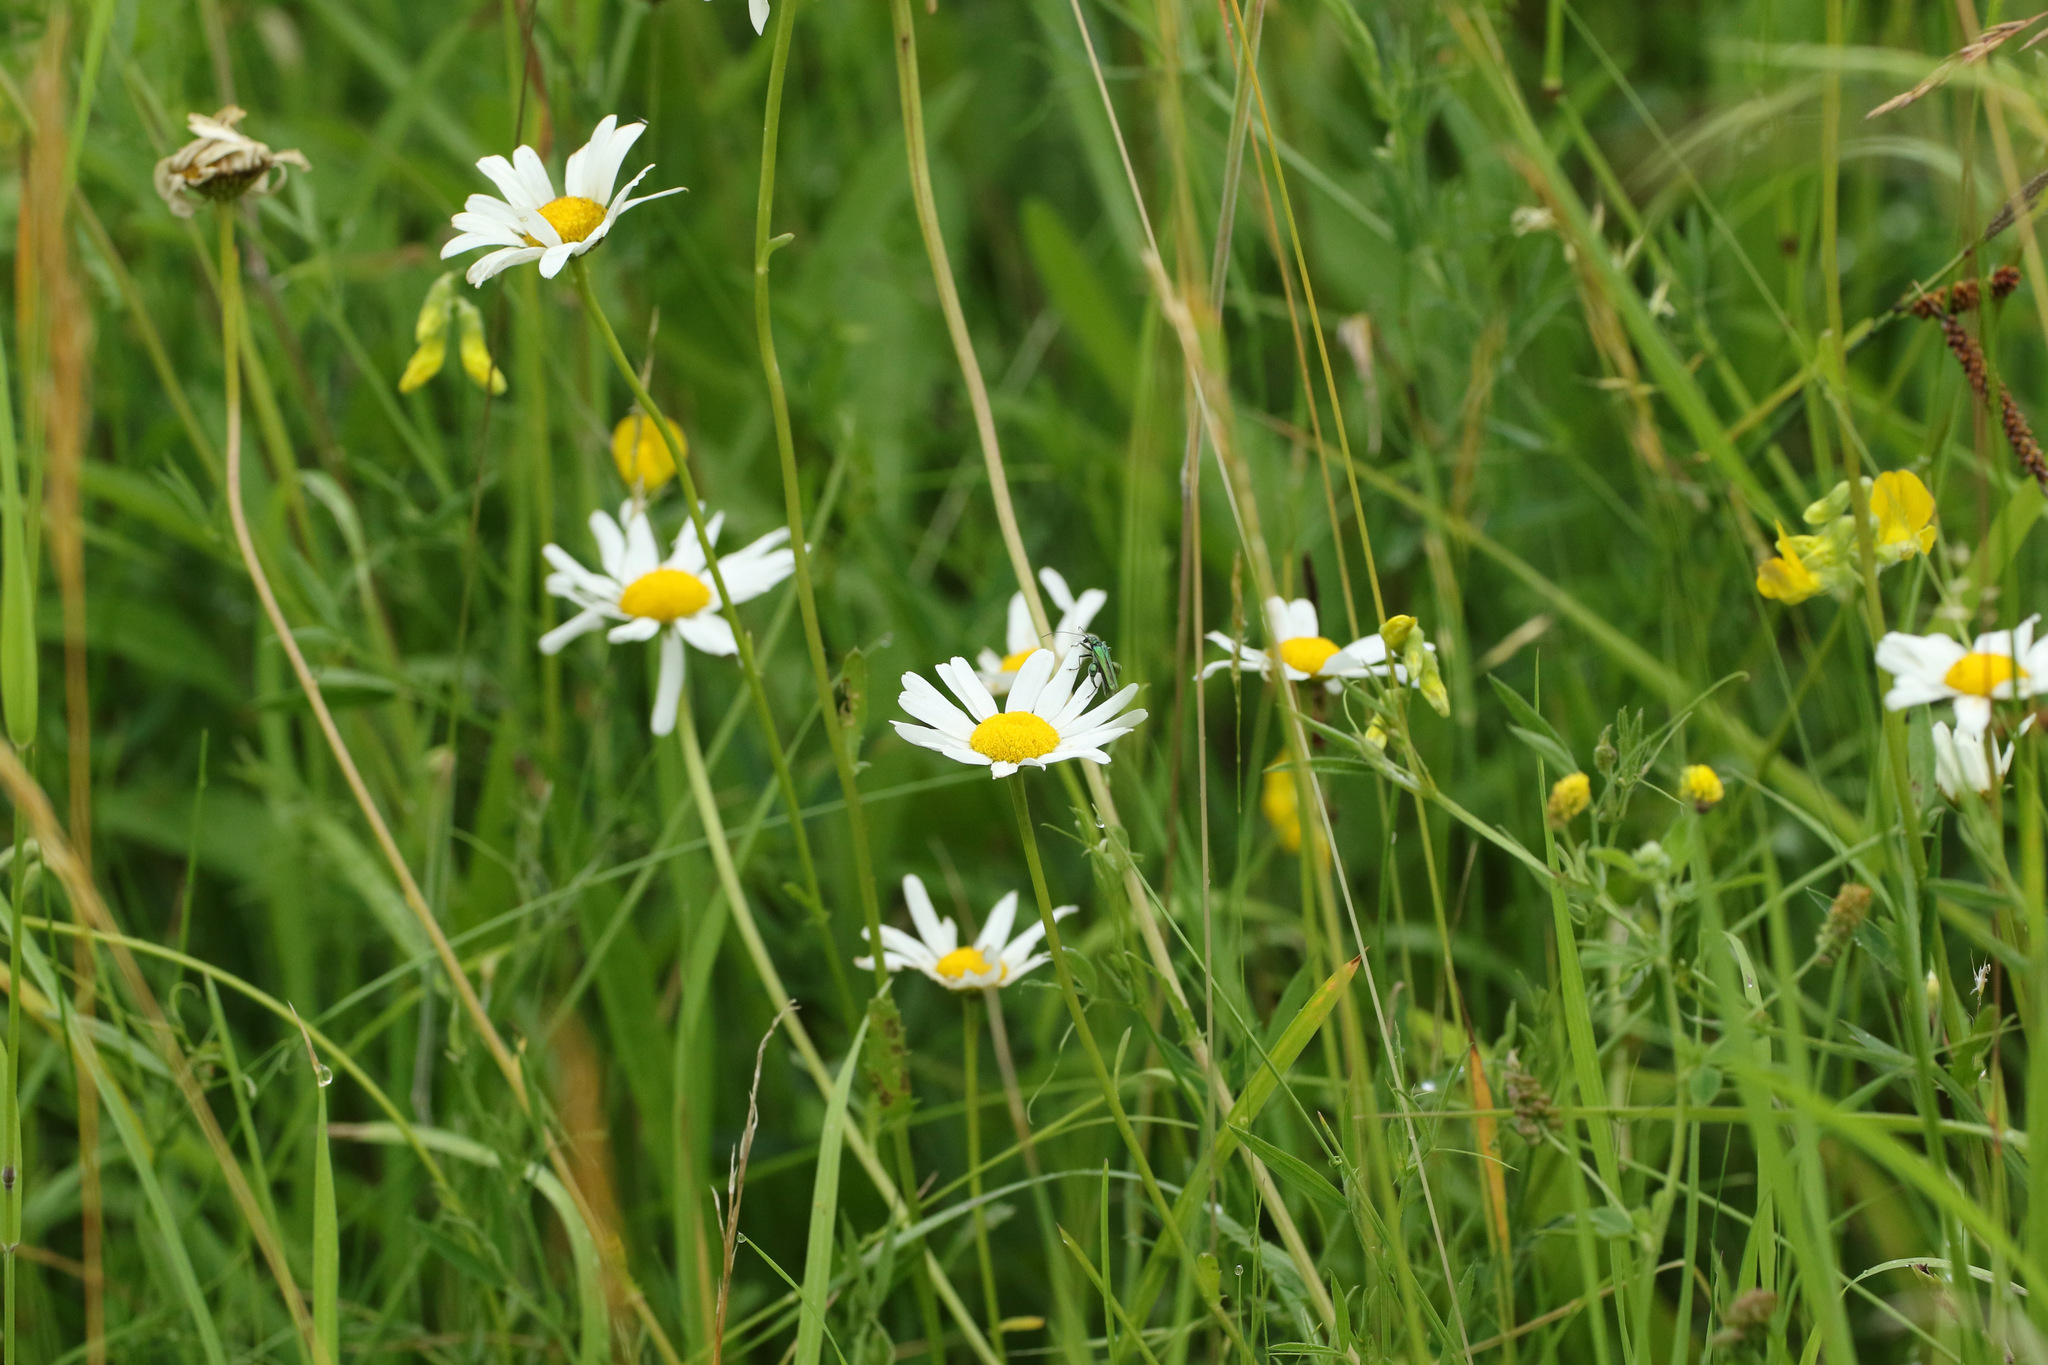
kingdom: Plantae
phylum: Tracheophyta
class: Magnoliopsida
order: Asterales
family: Asteraceae
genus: Leucanthemum
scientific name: Leucanthemum vulgare
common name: Oxeye daisy
